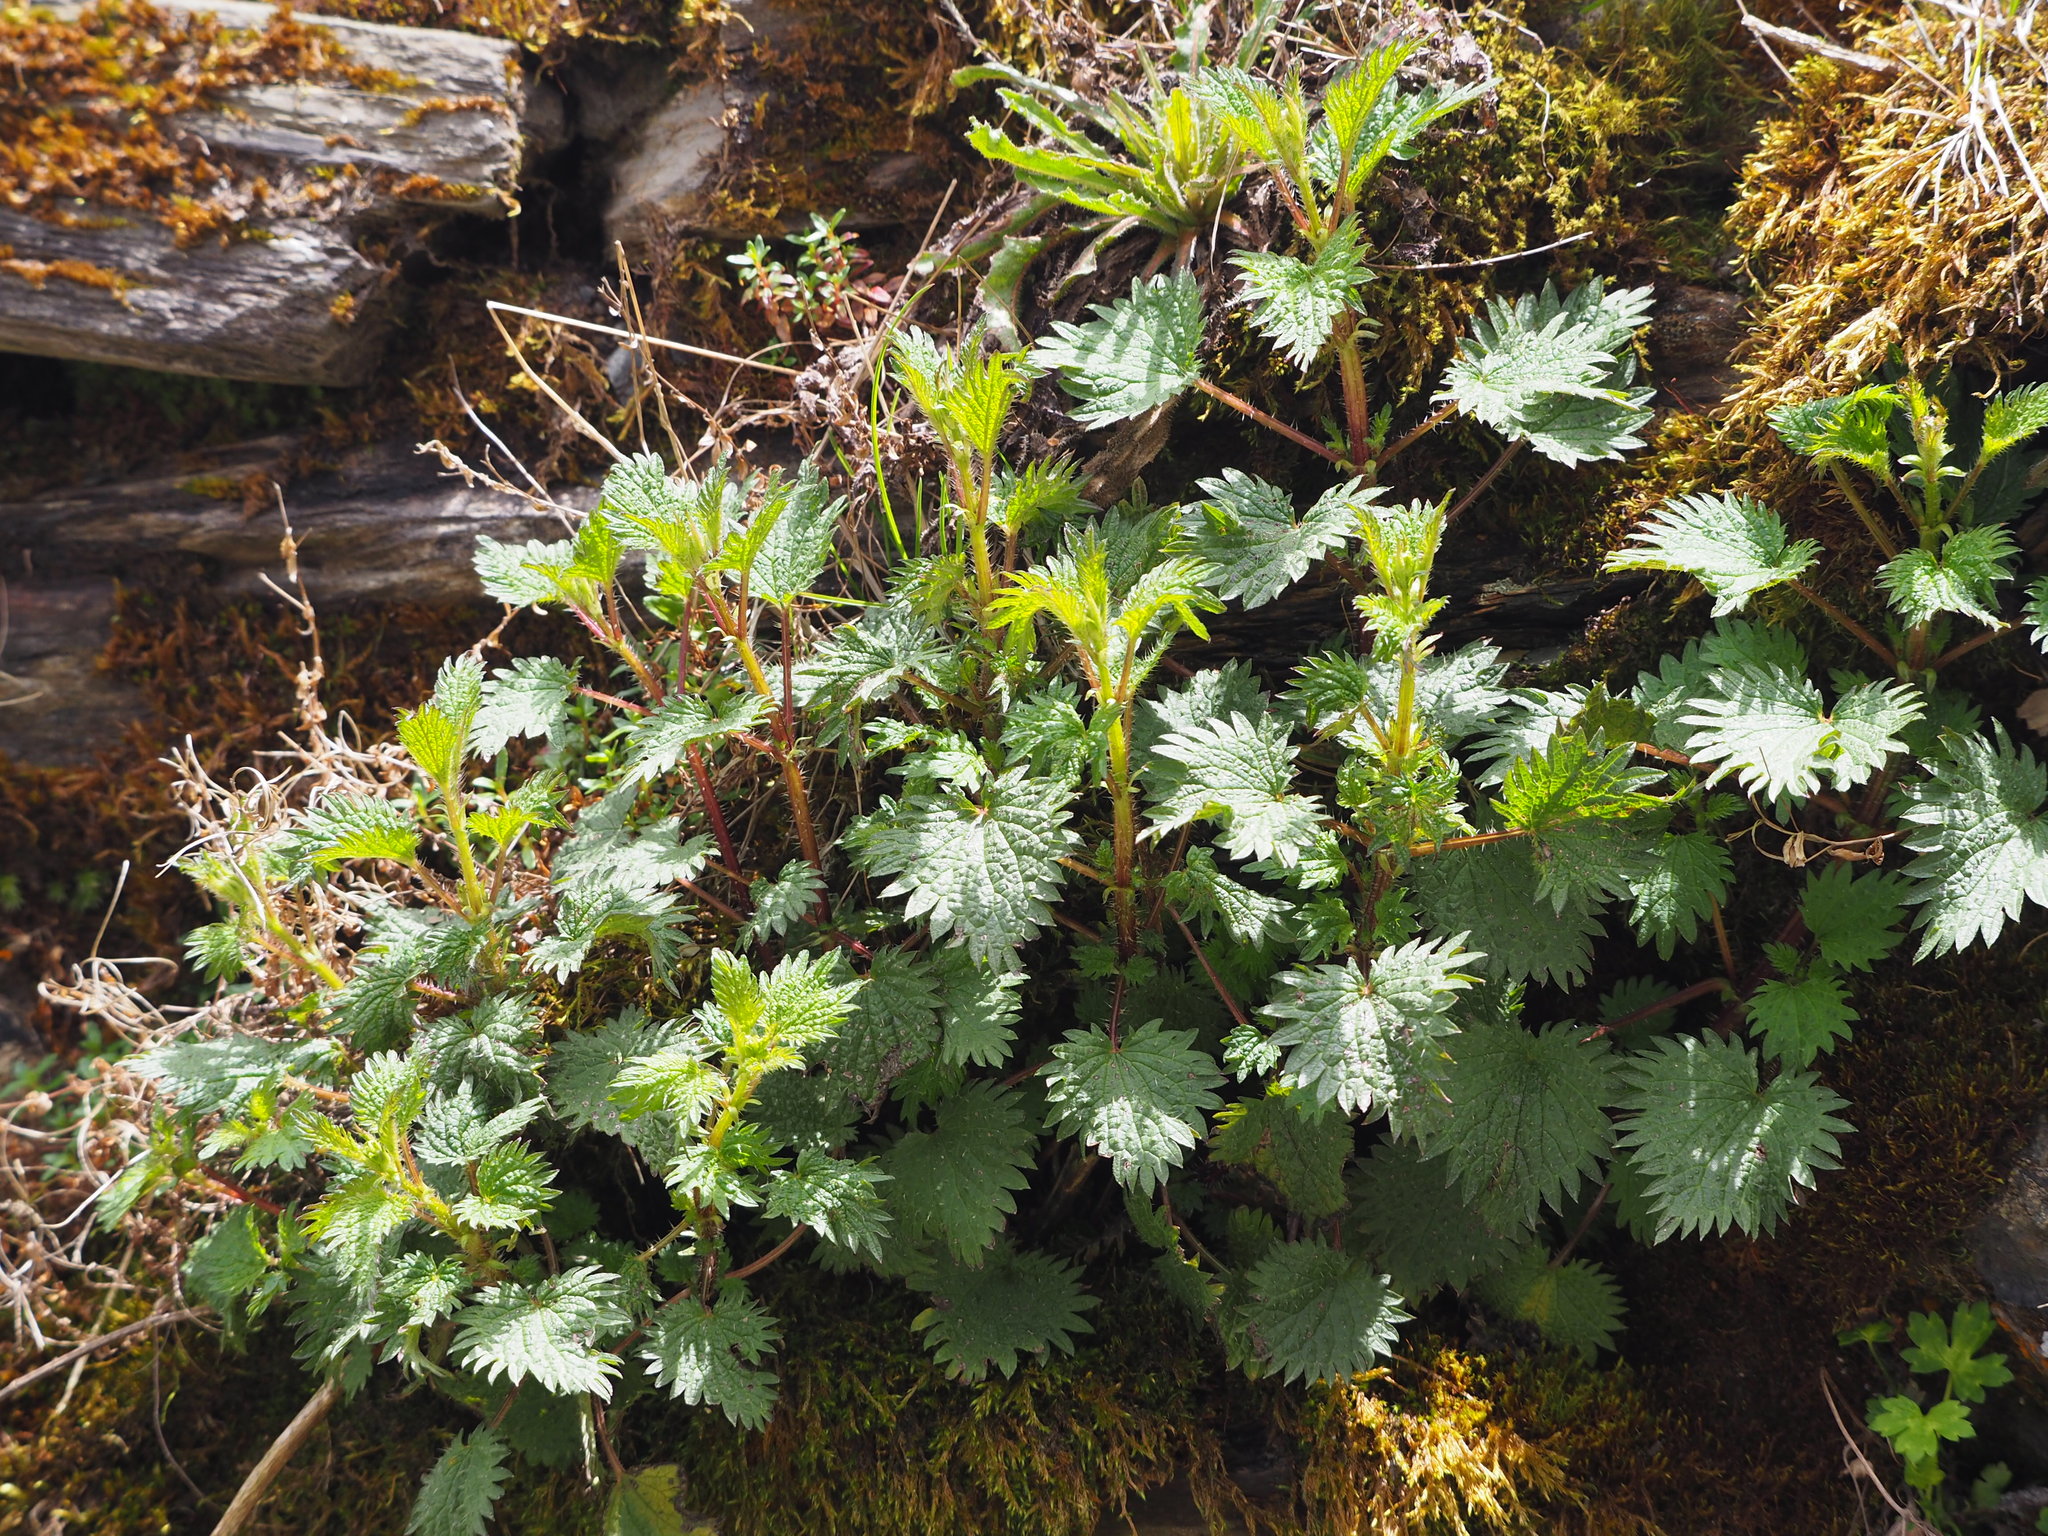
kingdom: Plantae
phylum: Tracheophyta
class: Magnoliopsida
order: Rosales
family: Urticaceae
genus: Urtica
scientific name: Urtica taiwaniana
